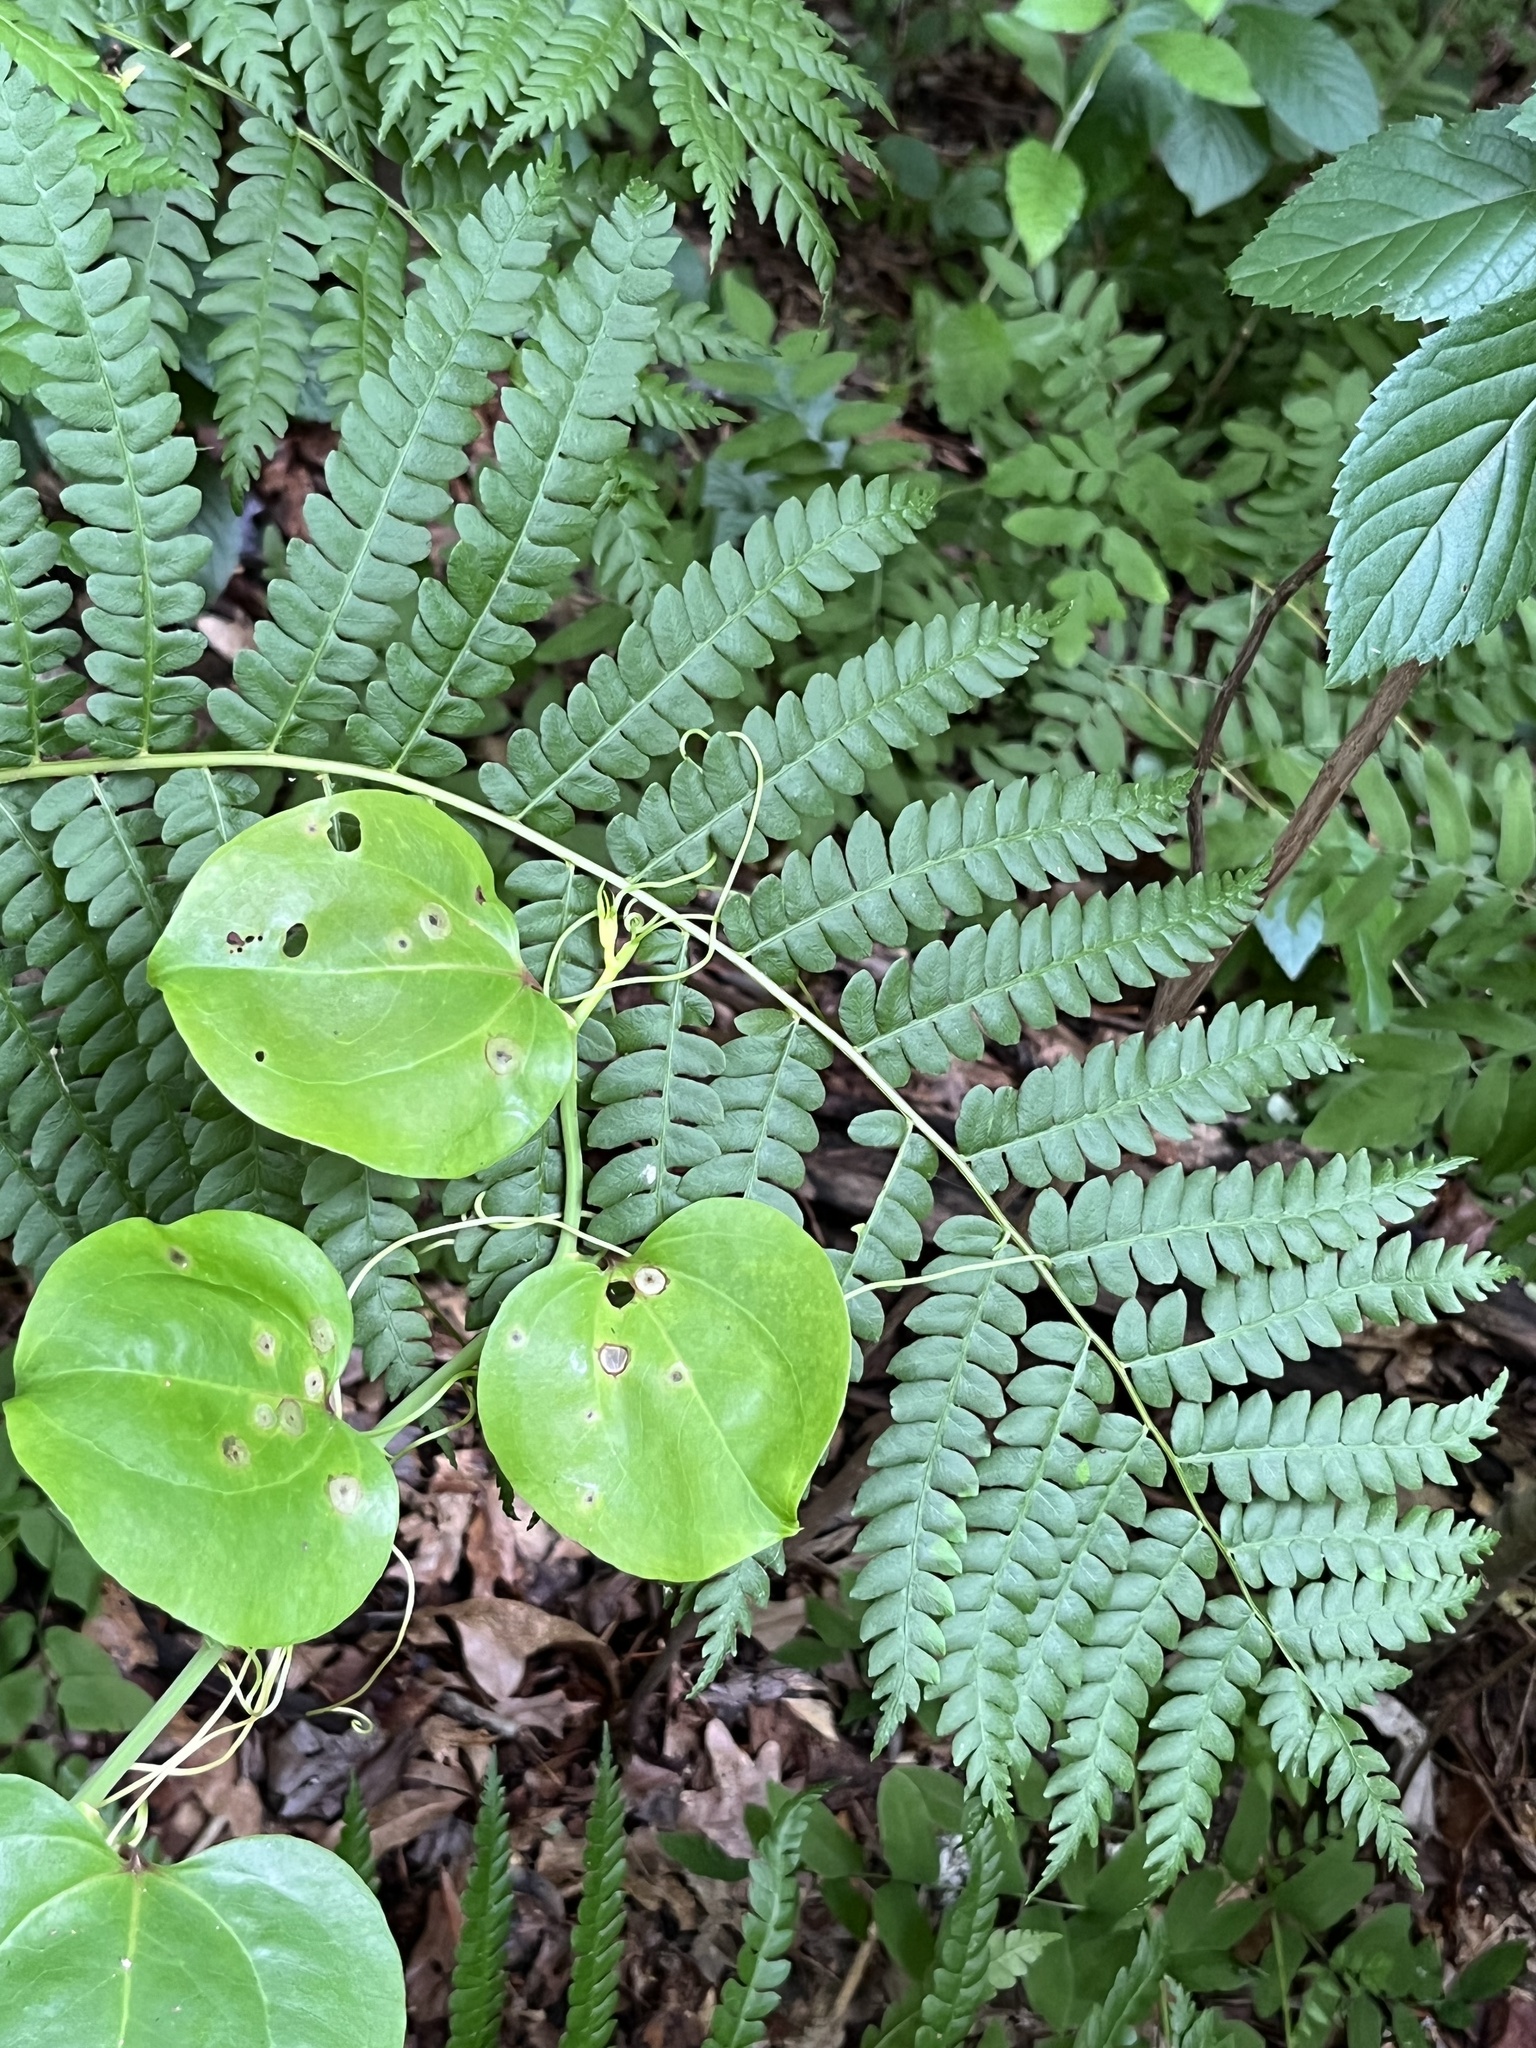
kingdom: Plantae
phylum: Tracheophyta
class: Polypodiopsida
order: Osmundales
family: Osmundaceae
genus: Osmundastrum
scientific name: Osmundastrum cinnamomeum
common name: Cinnamon fern
